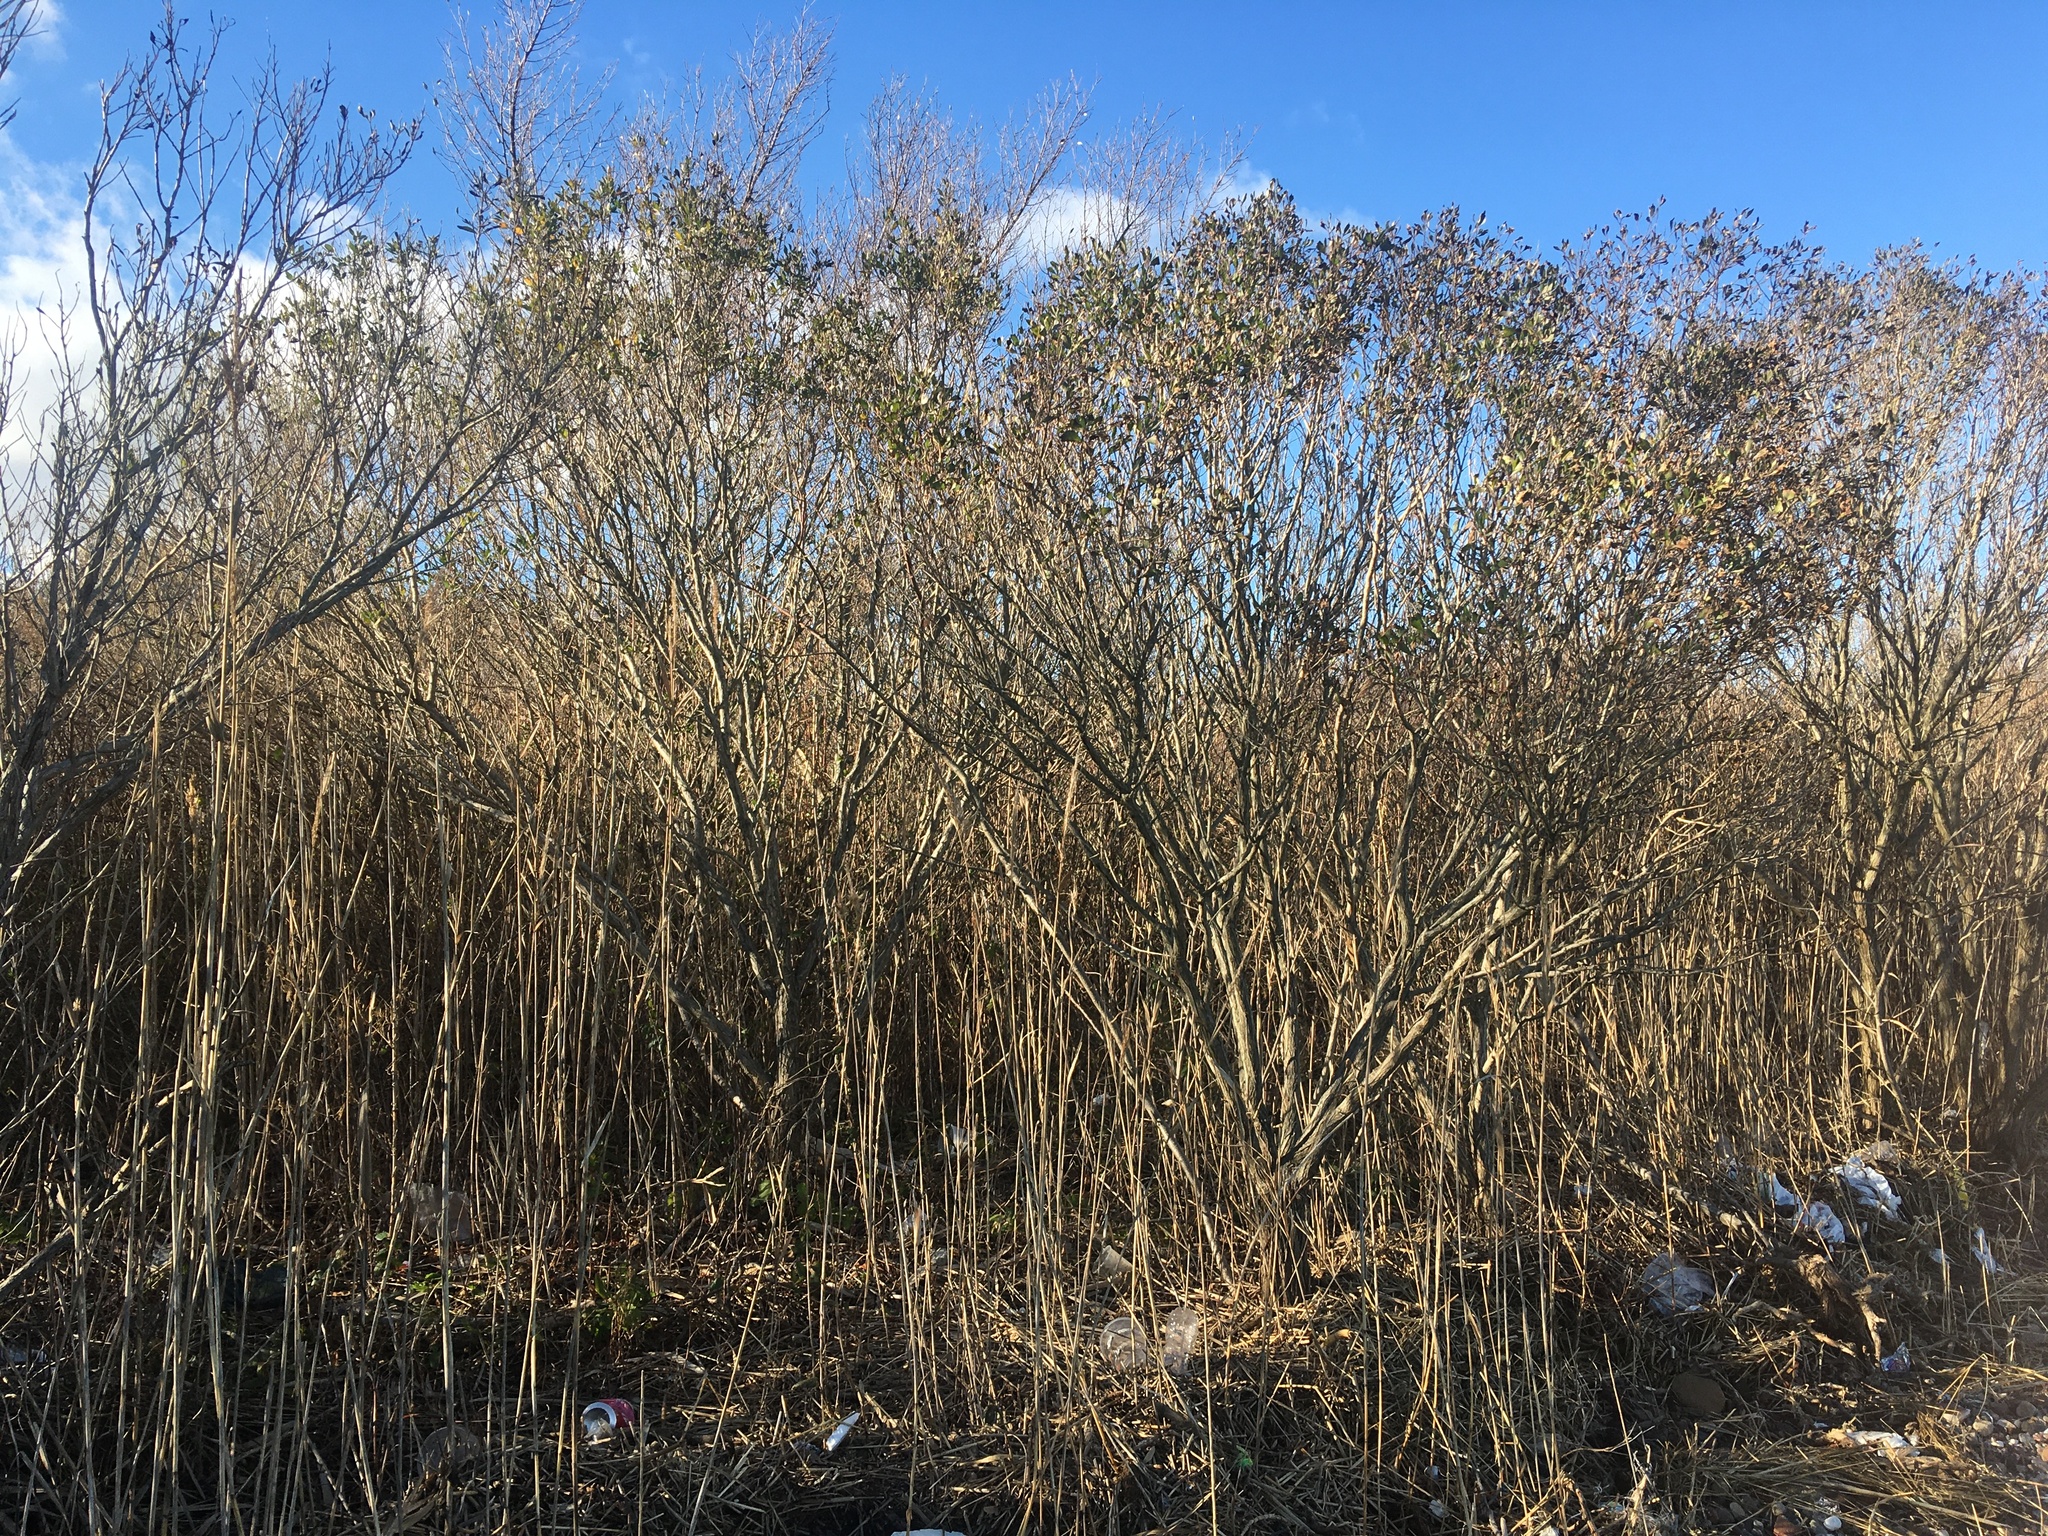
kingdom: Plantae
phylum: Tracheophyta
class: Magnoliopsida
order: Asterales
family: Asteraceae
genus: Baccharis
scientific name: Baccharis halimifolia
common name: Eastern baccharis
